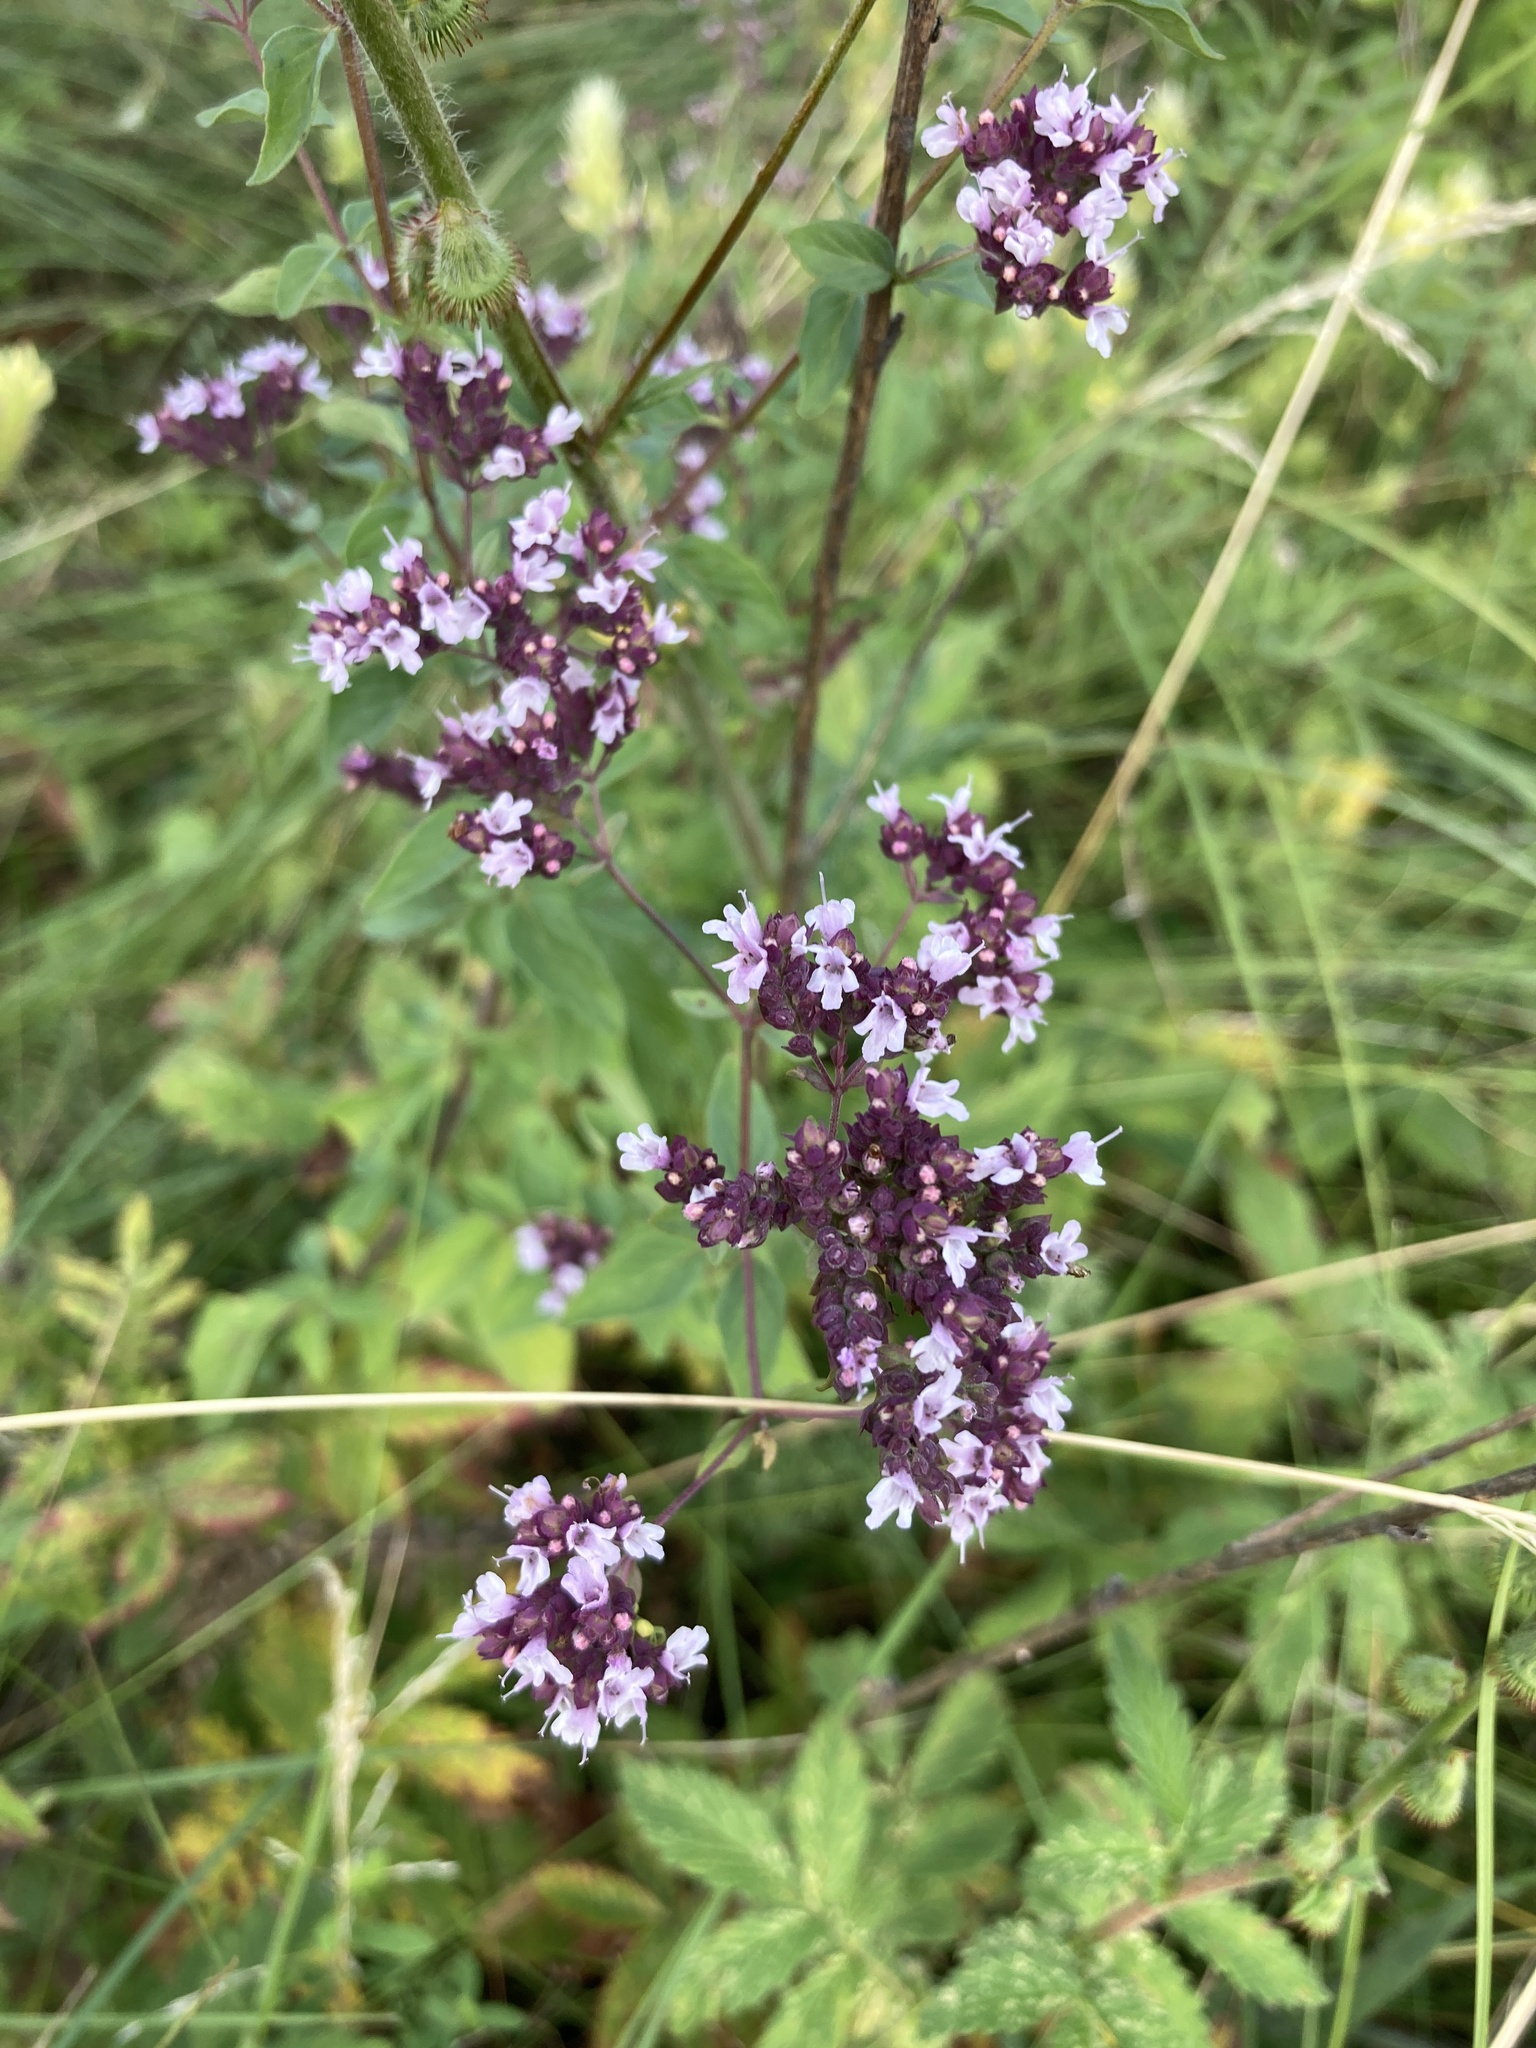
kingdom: Plantae
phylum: Tracheophyta
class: Magnoliopsida
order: Lamiales
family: Lamiaceae
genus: Origanum
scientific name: Origanum vulgare
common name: Wild marjoram
